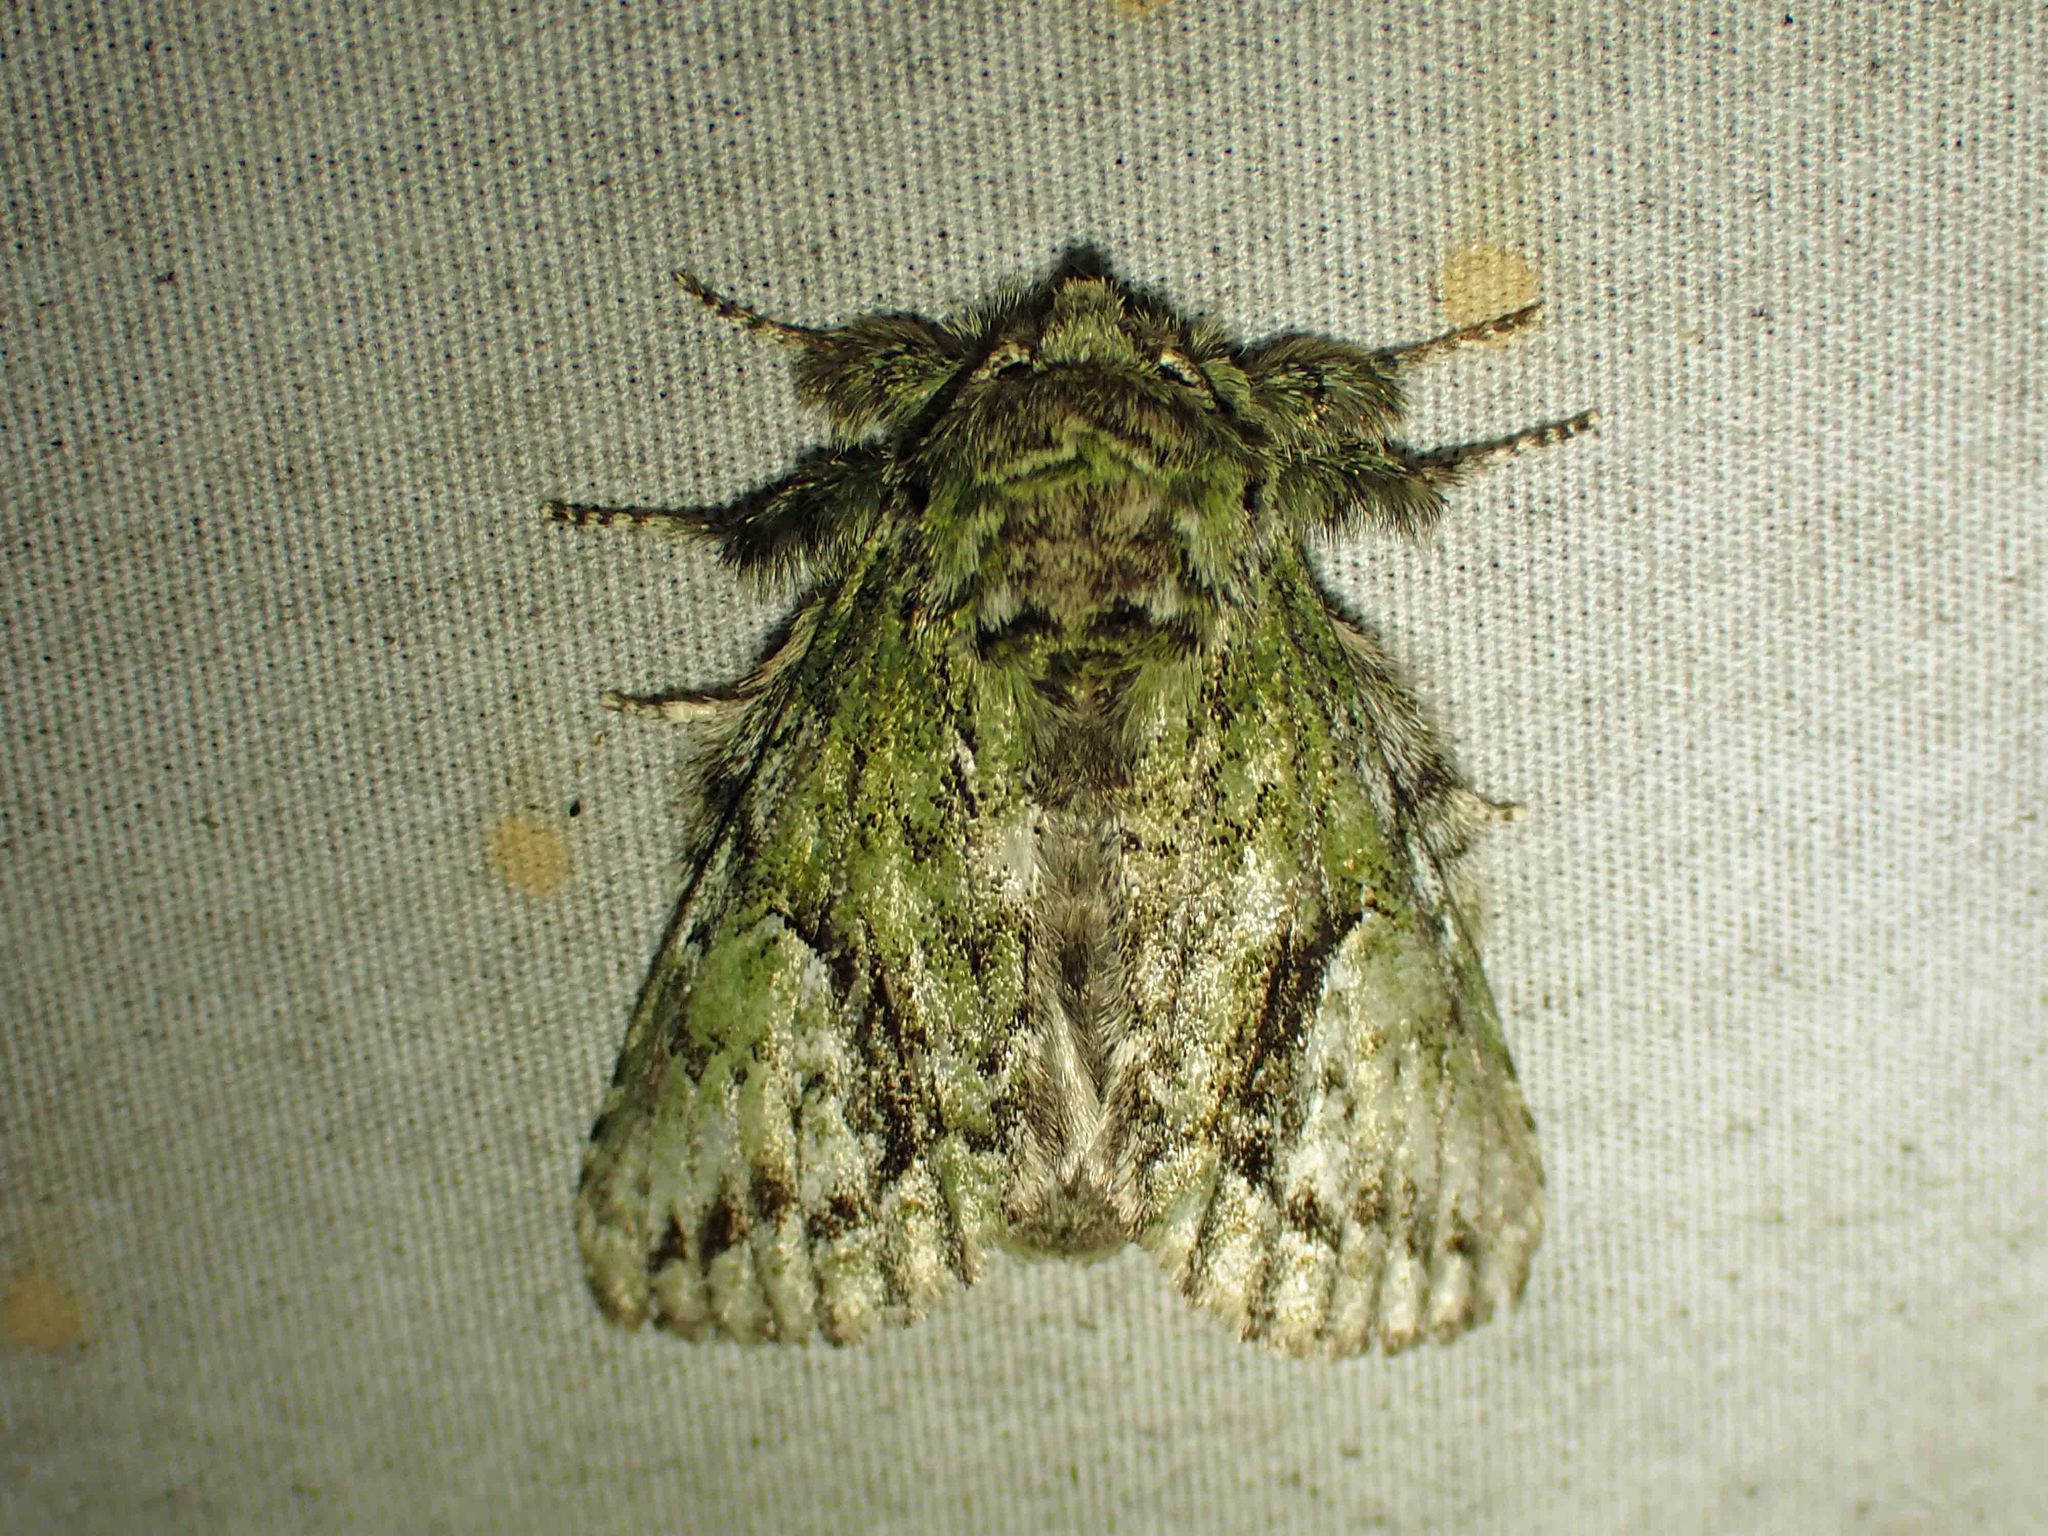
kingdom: Animalia
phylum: Arthropoda
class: Insecta
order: Lepidoptera
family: Notodontidae
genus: Heterocampa
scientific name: Heterocampa
